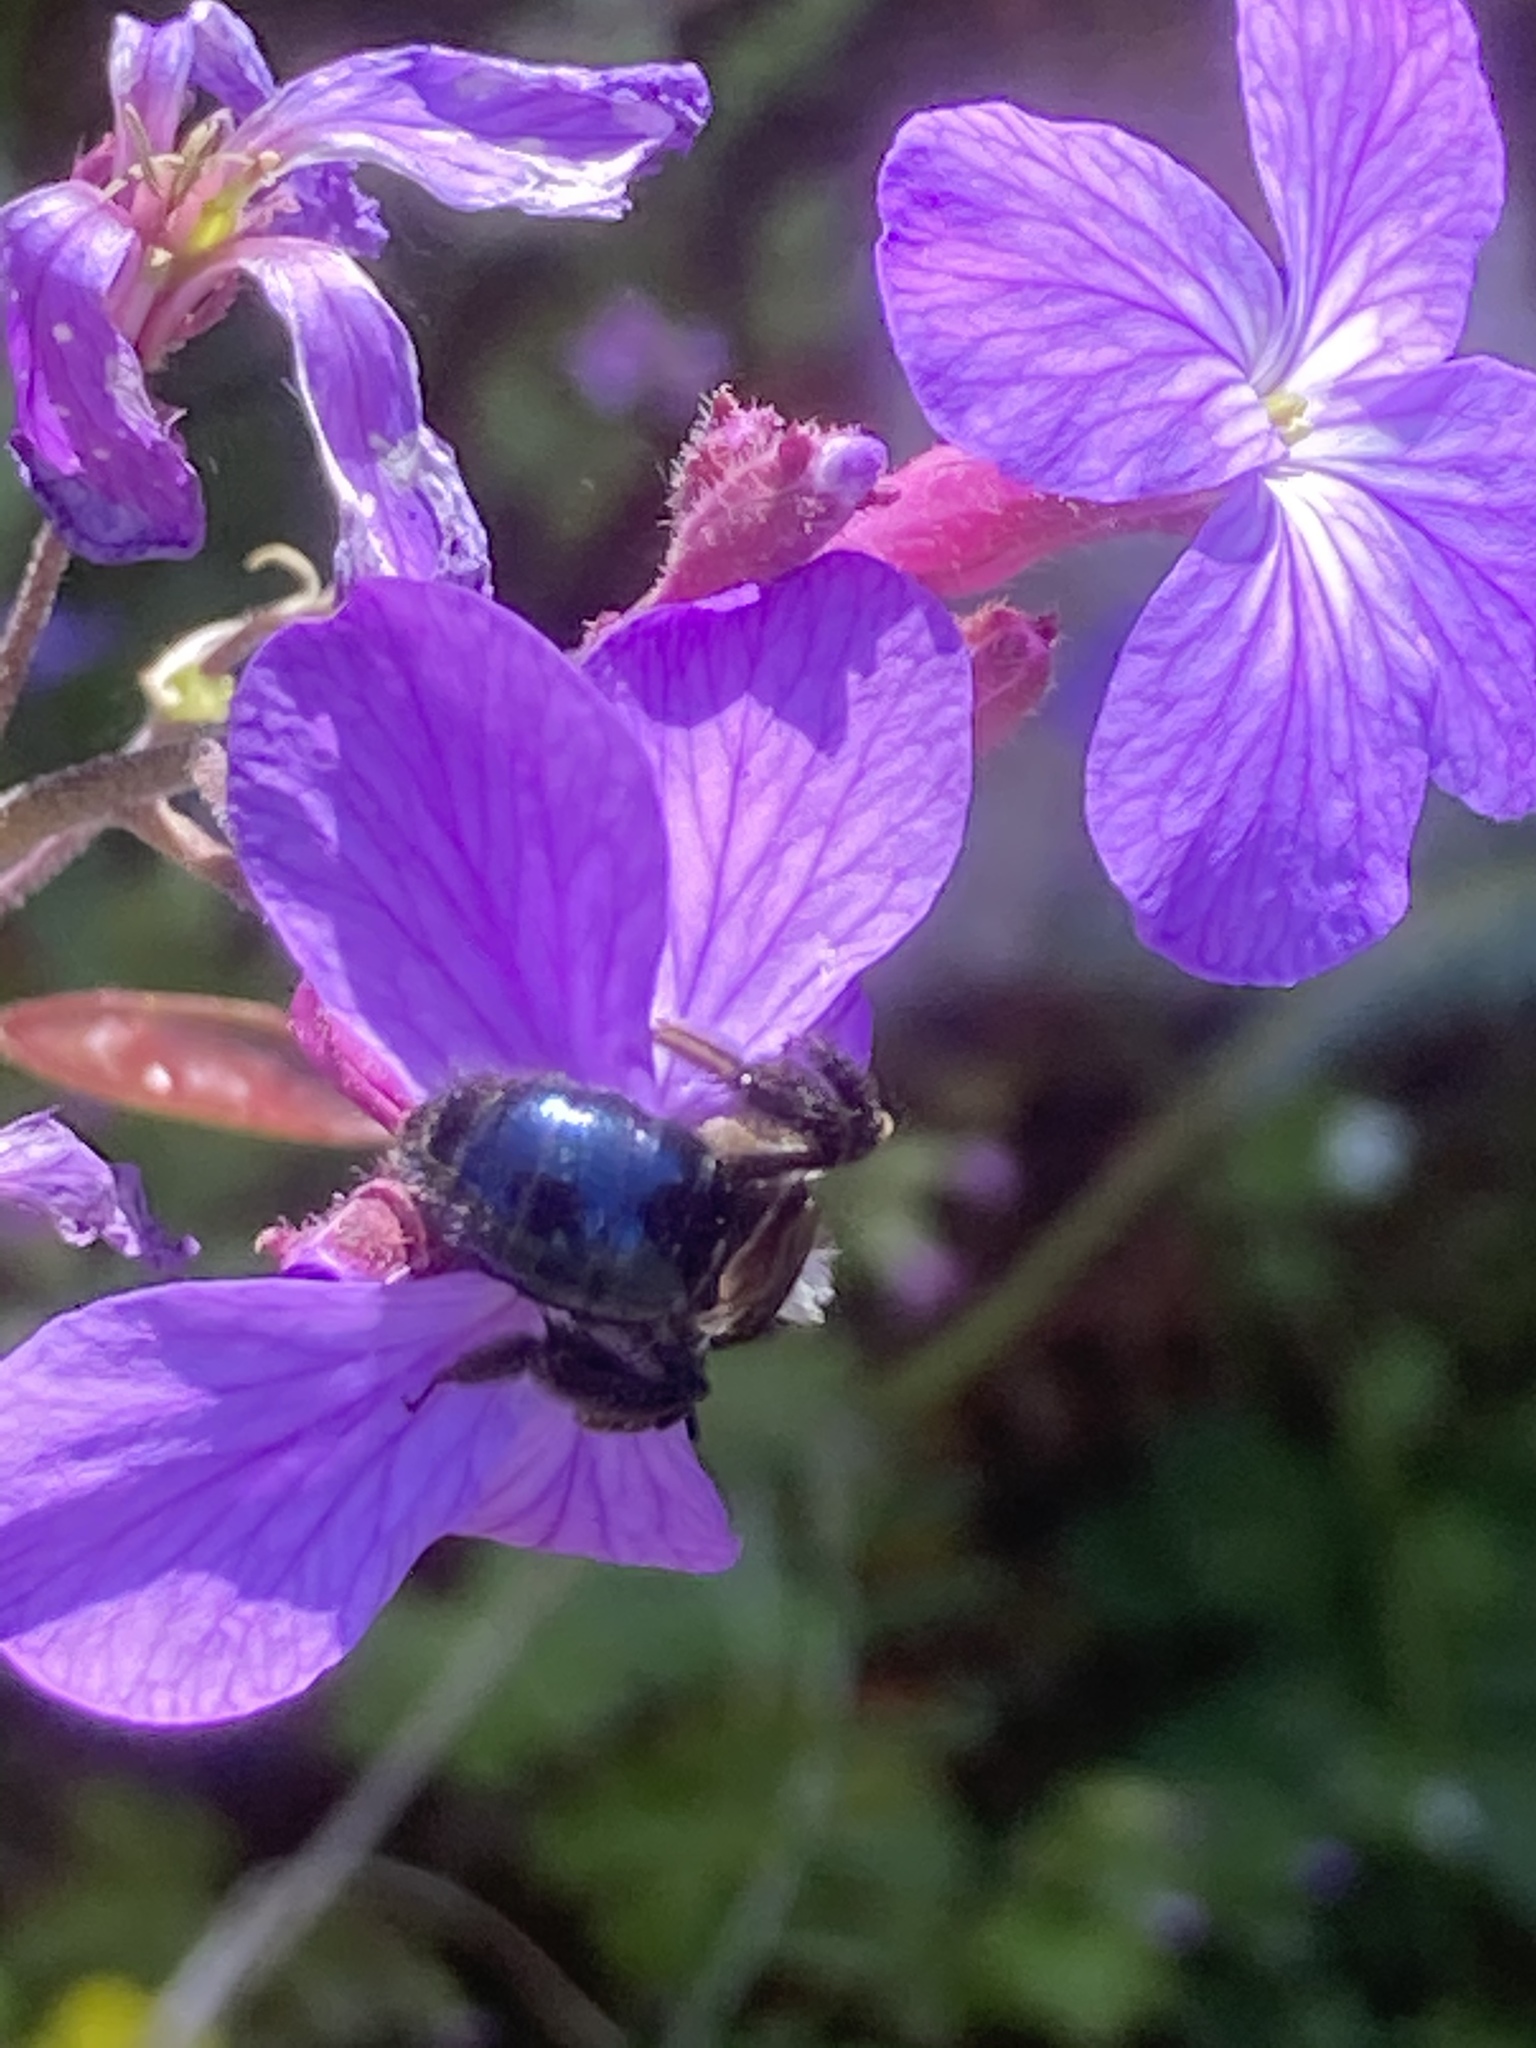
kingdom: Plantae
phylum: Tracheophyta
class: Magnoliopsida
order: Brassicales
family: Brassicaceae
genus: Lunaria
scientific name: Lunaria annua
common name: Honesty
